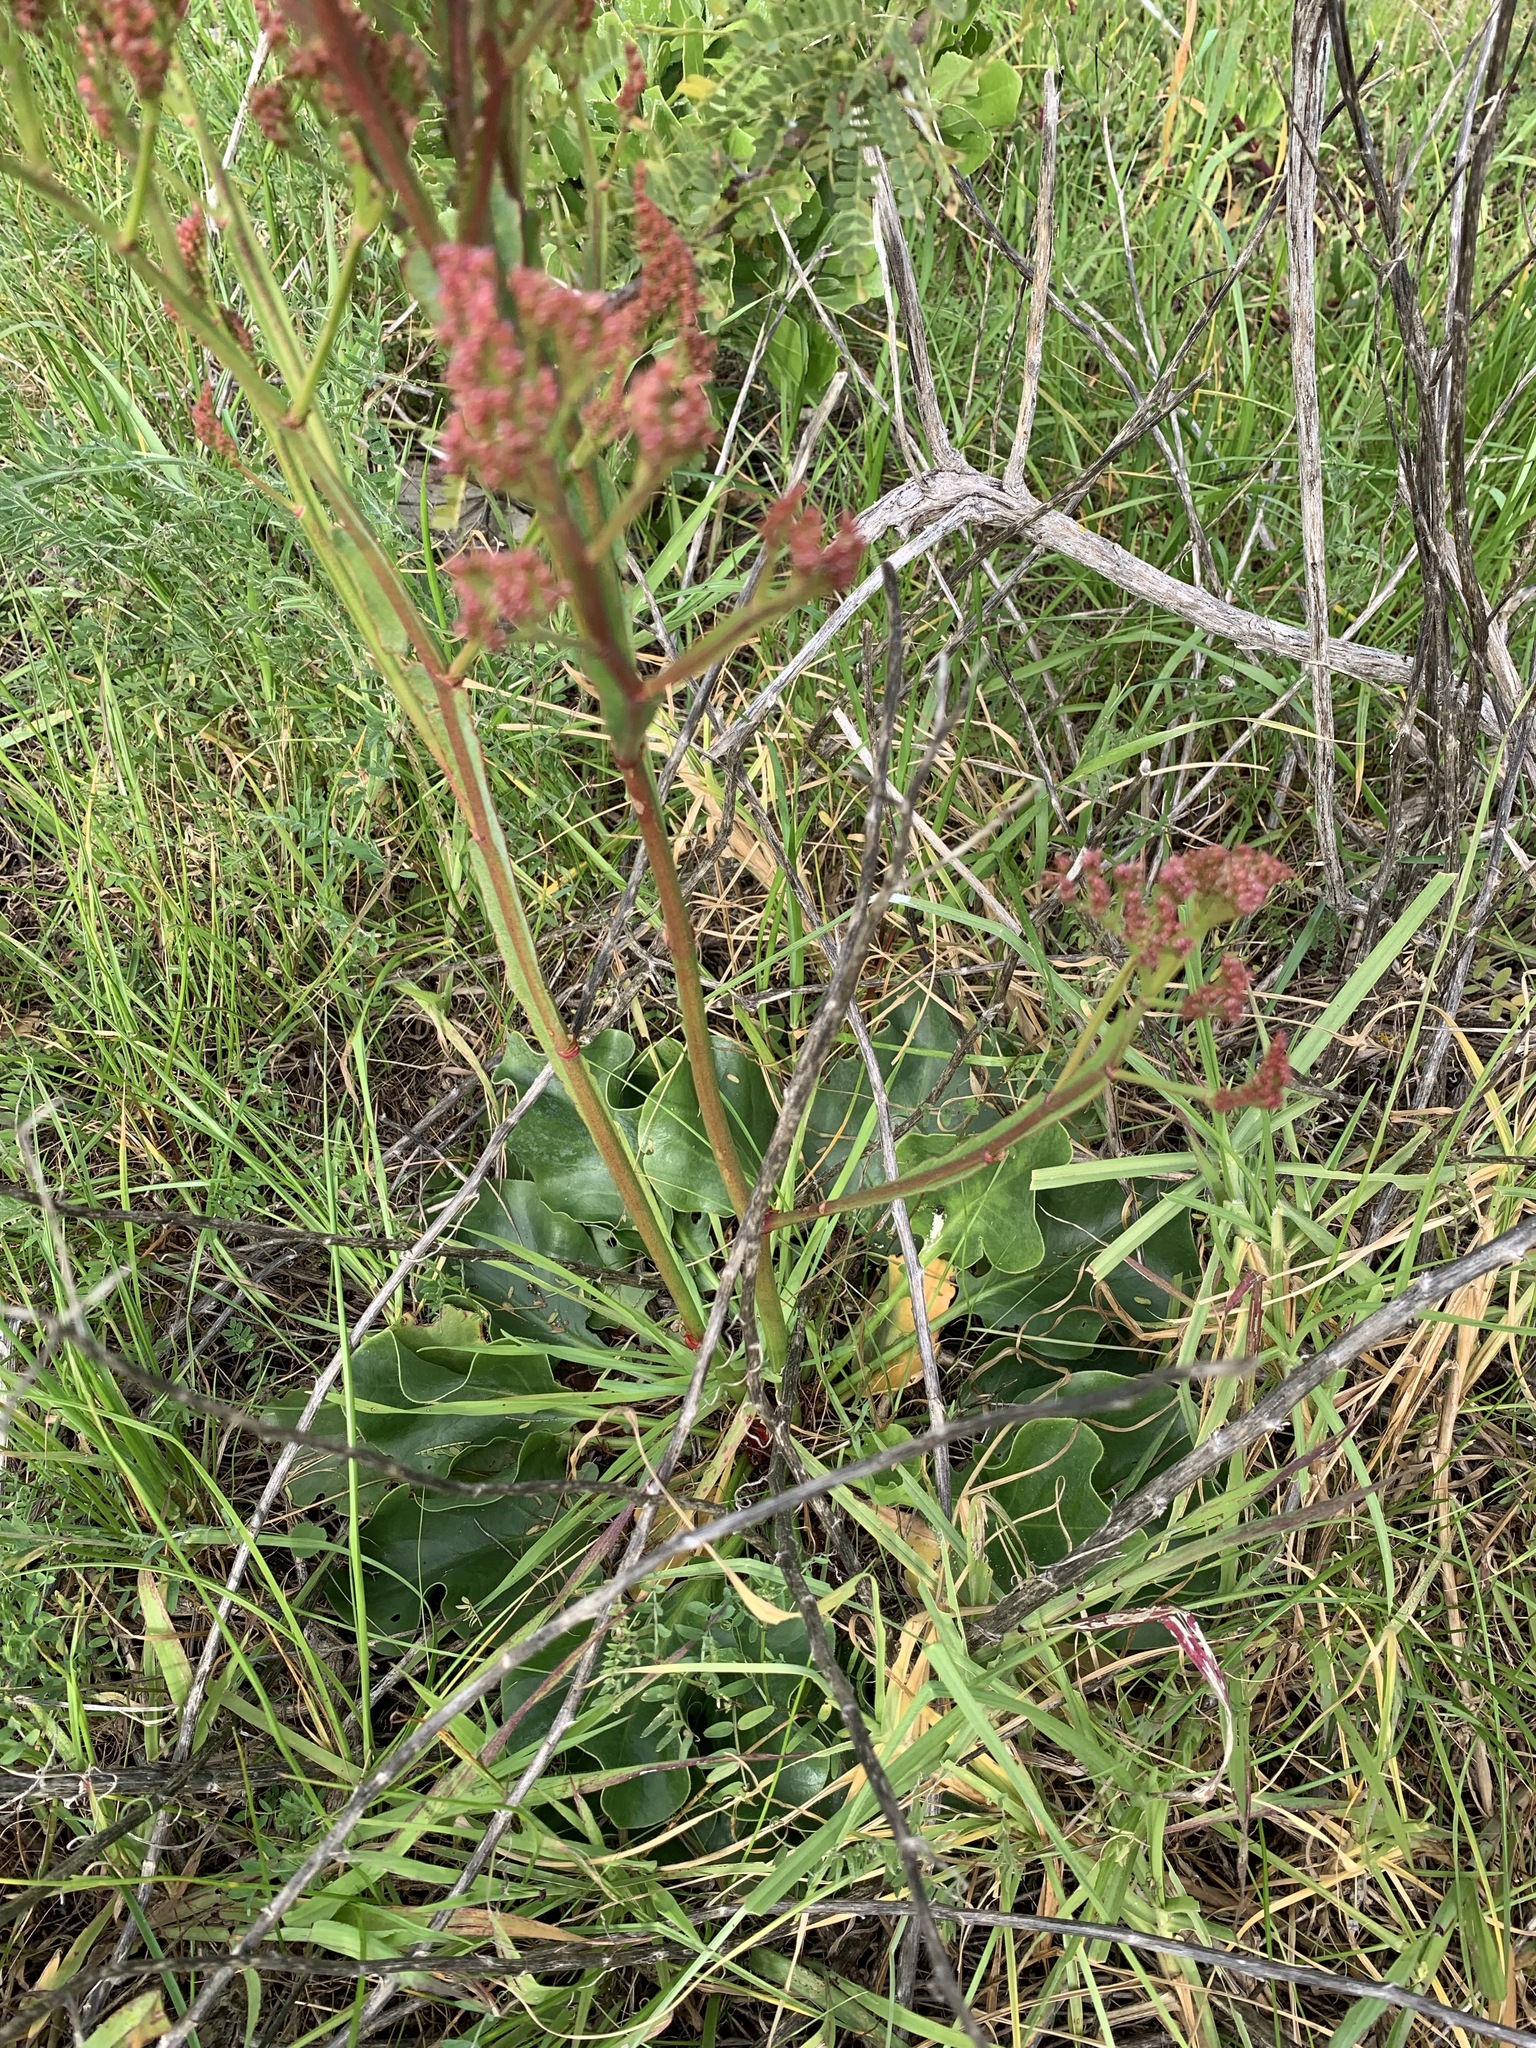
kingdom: Plantae
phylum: Tracheophyta
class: Magnoliopsida
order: Caryophyllales
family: Plumbaginaceae
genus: Limonium
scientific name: Limonium perezii
